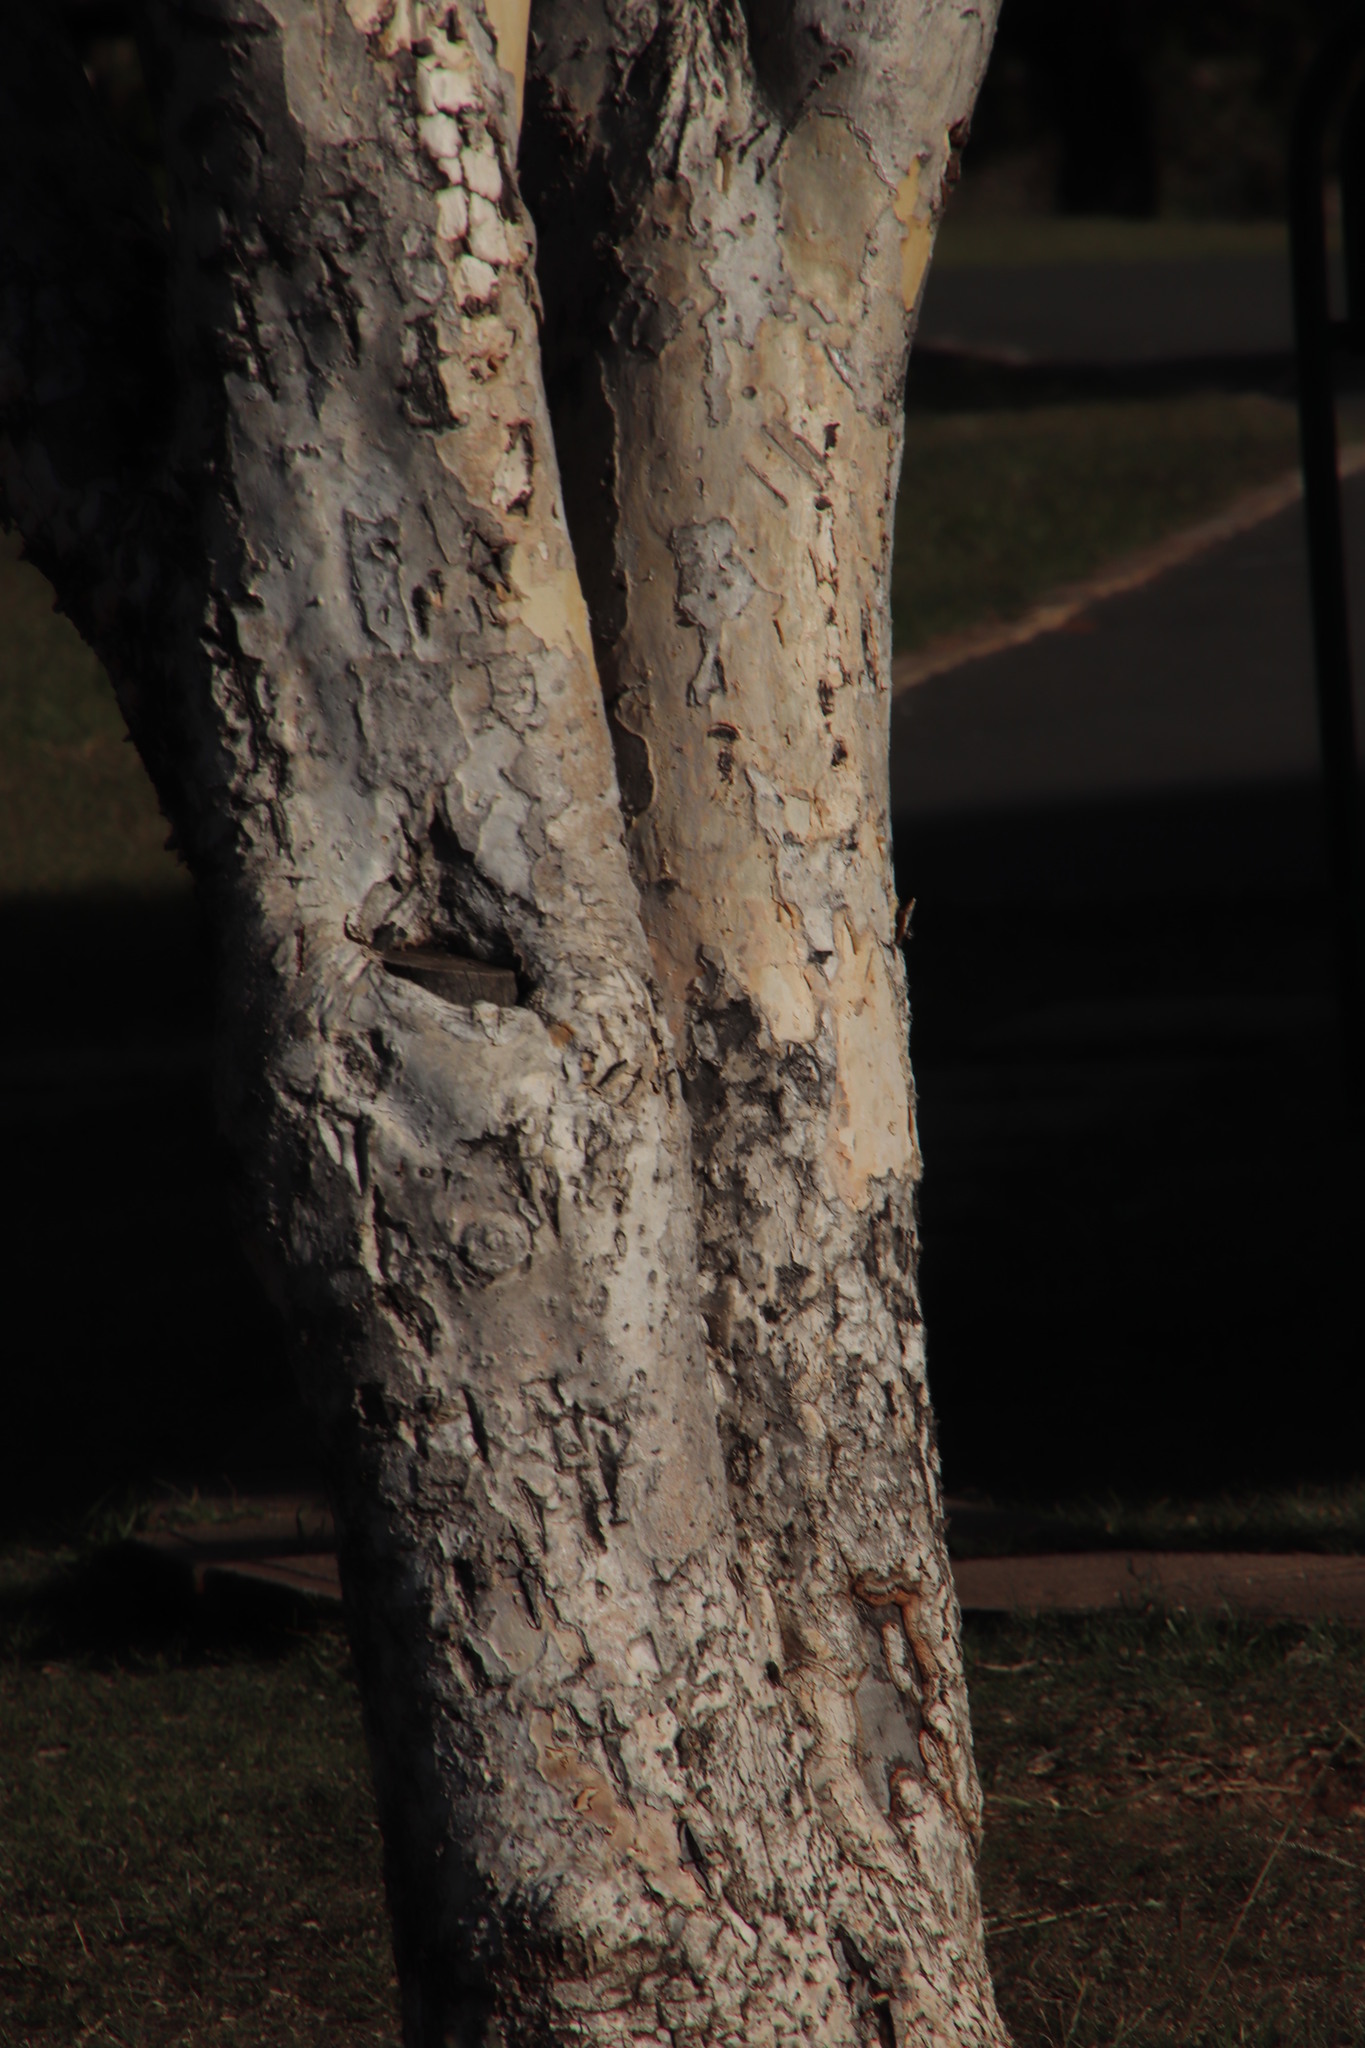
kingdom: Plantae
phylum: Tracheophyta
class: Magnoliopsida
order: Myrtales
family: Myrtaceae
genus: Heteropyxis
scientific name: Heteropyxis natalensis
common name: Lavender tree
